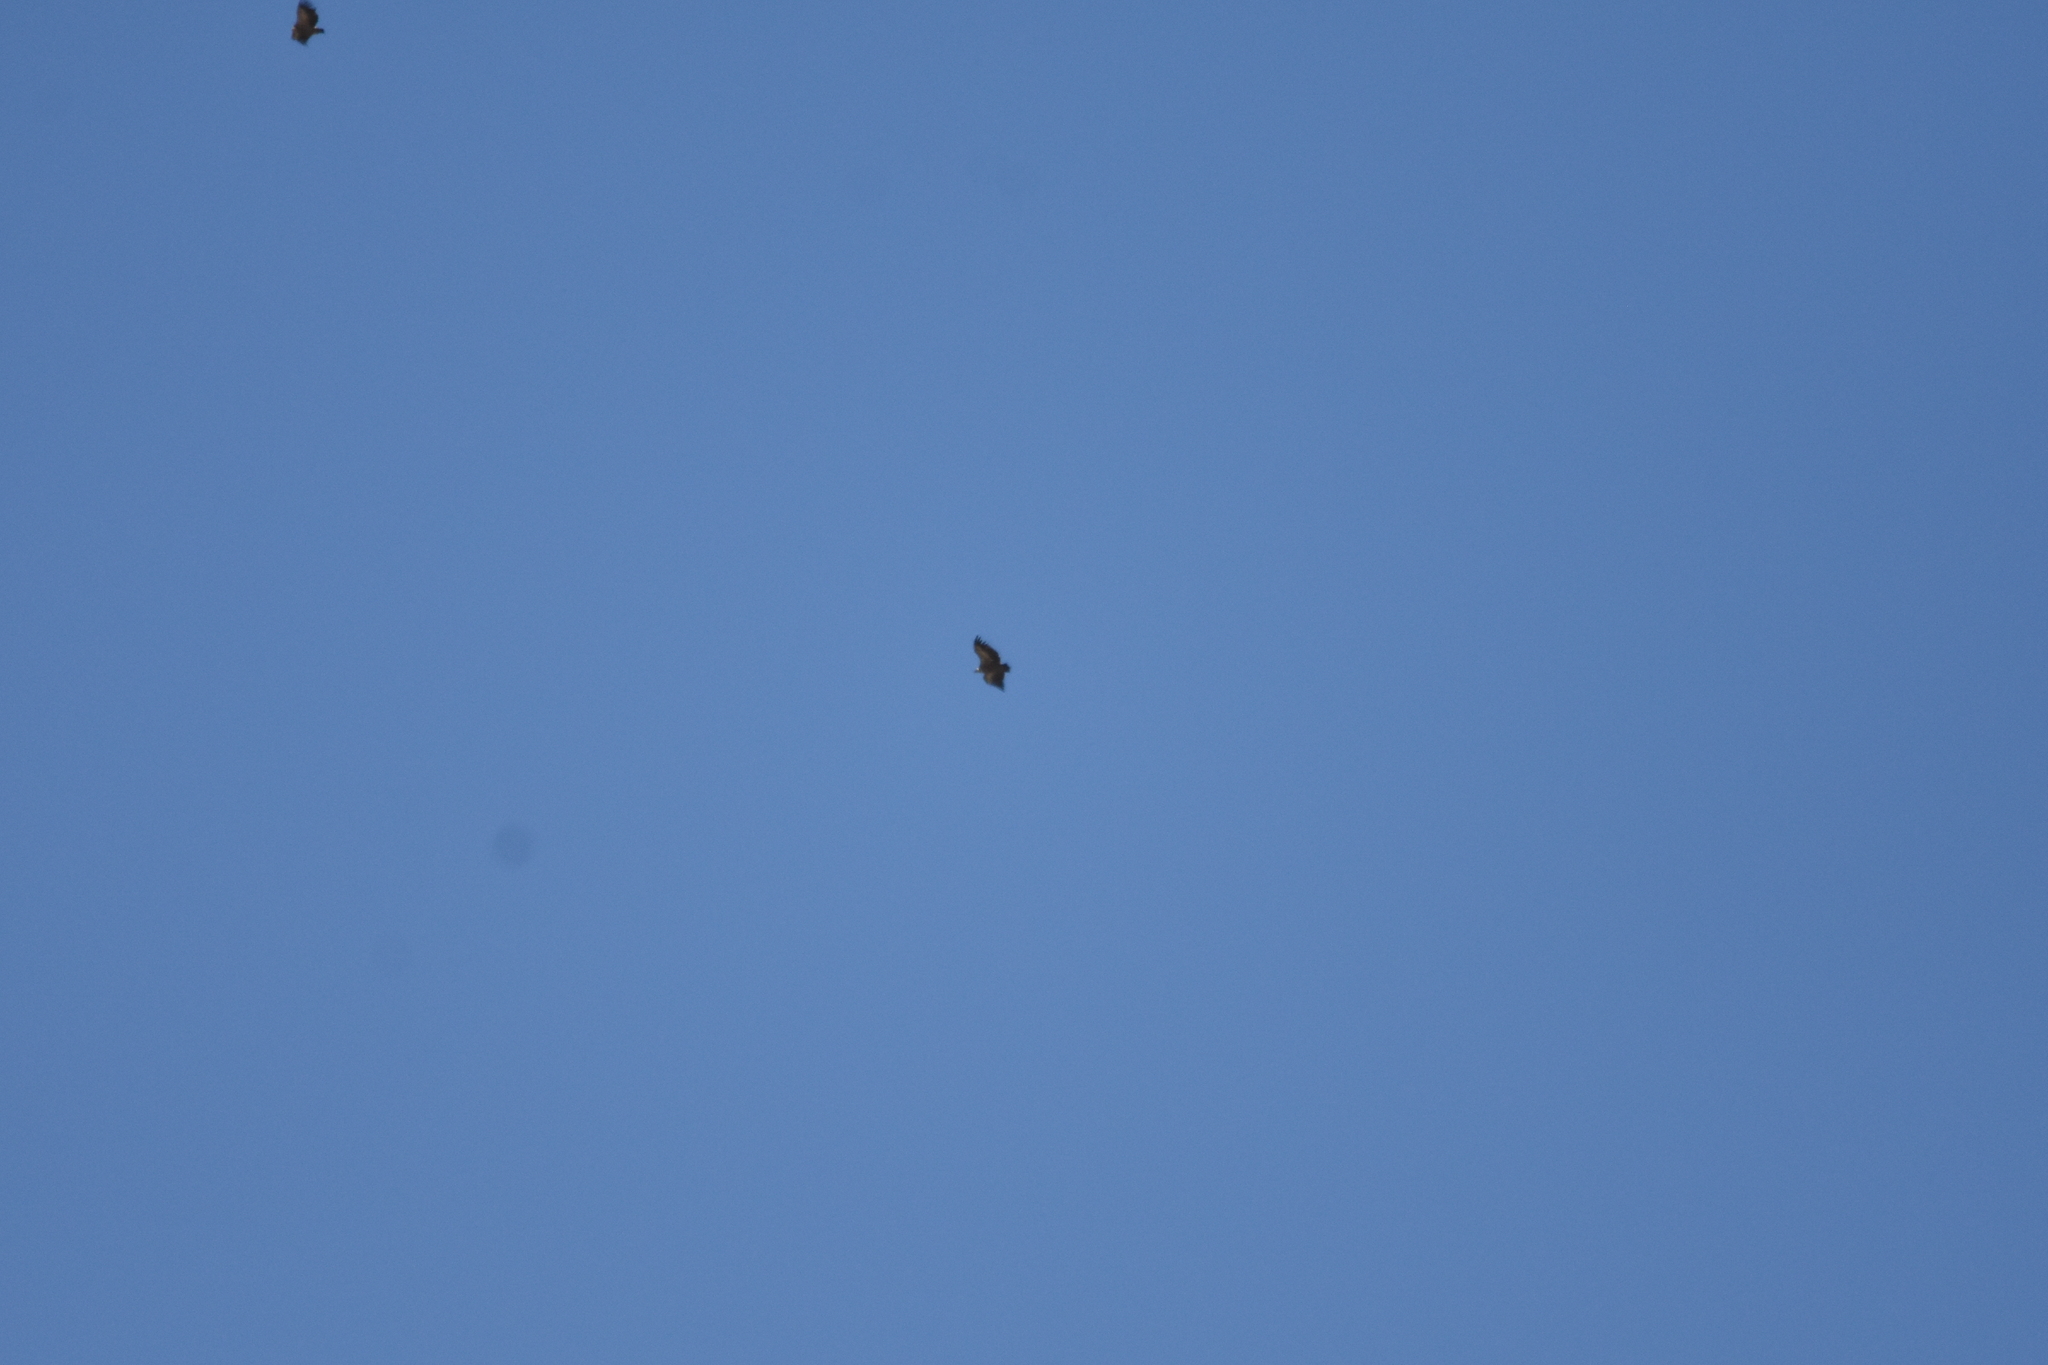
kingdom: Animalia
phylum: Chordata
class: Aves
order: Accipitriformes
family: Accipitridae
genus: Gyps
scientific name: Gyps fulvus
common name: Griffon vulture
